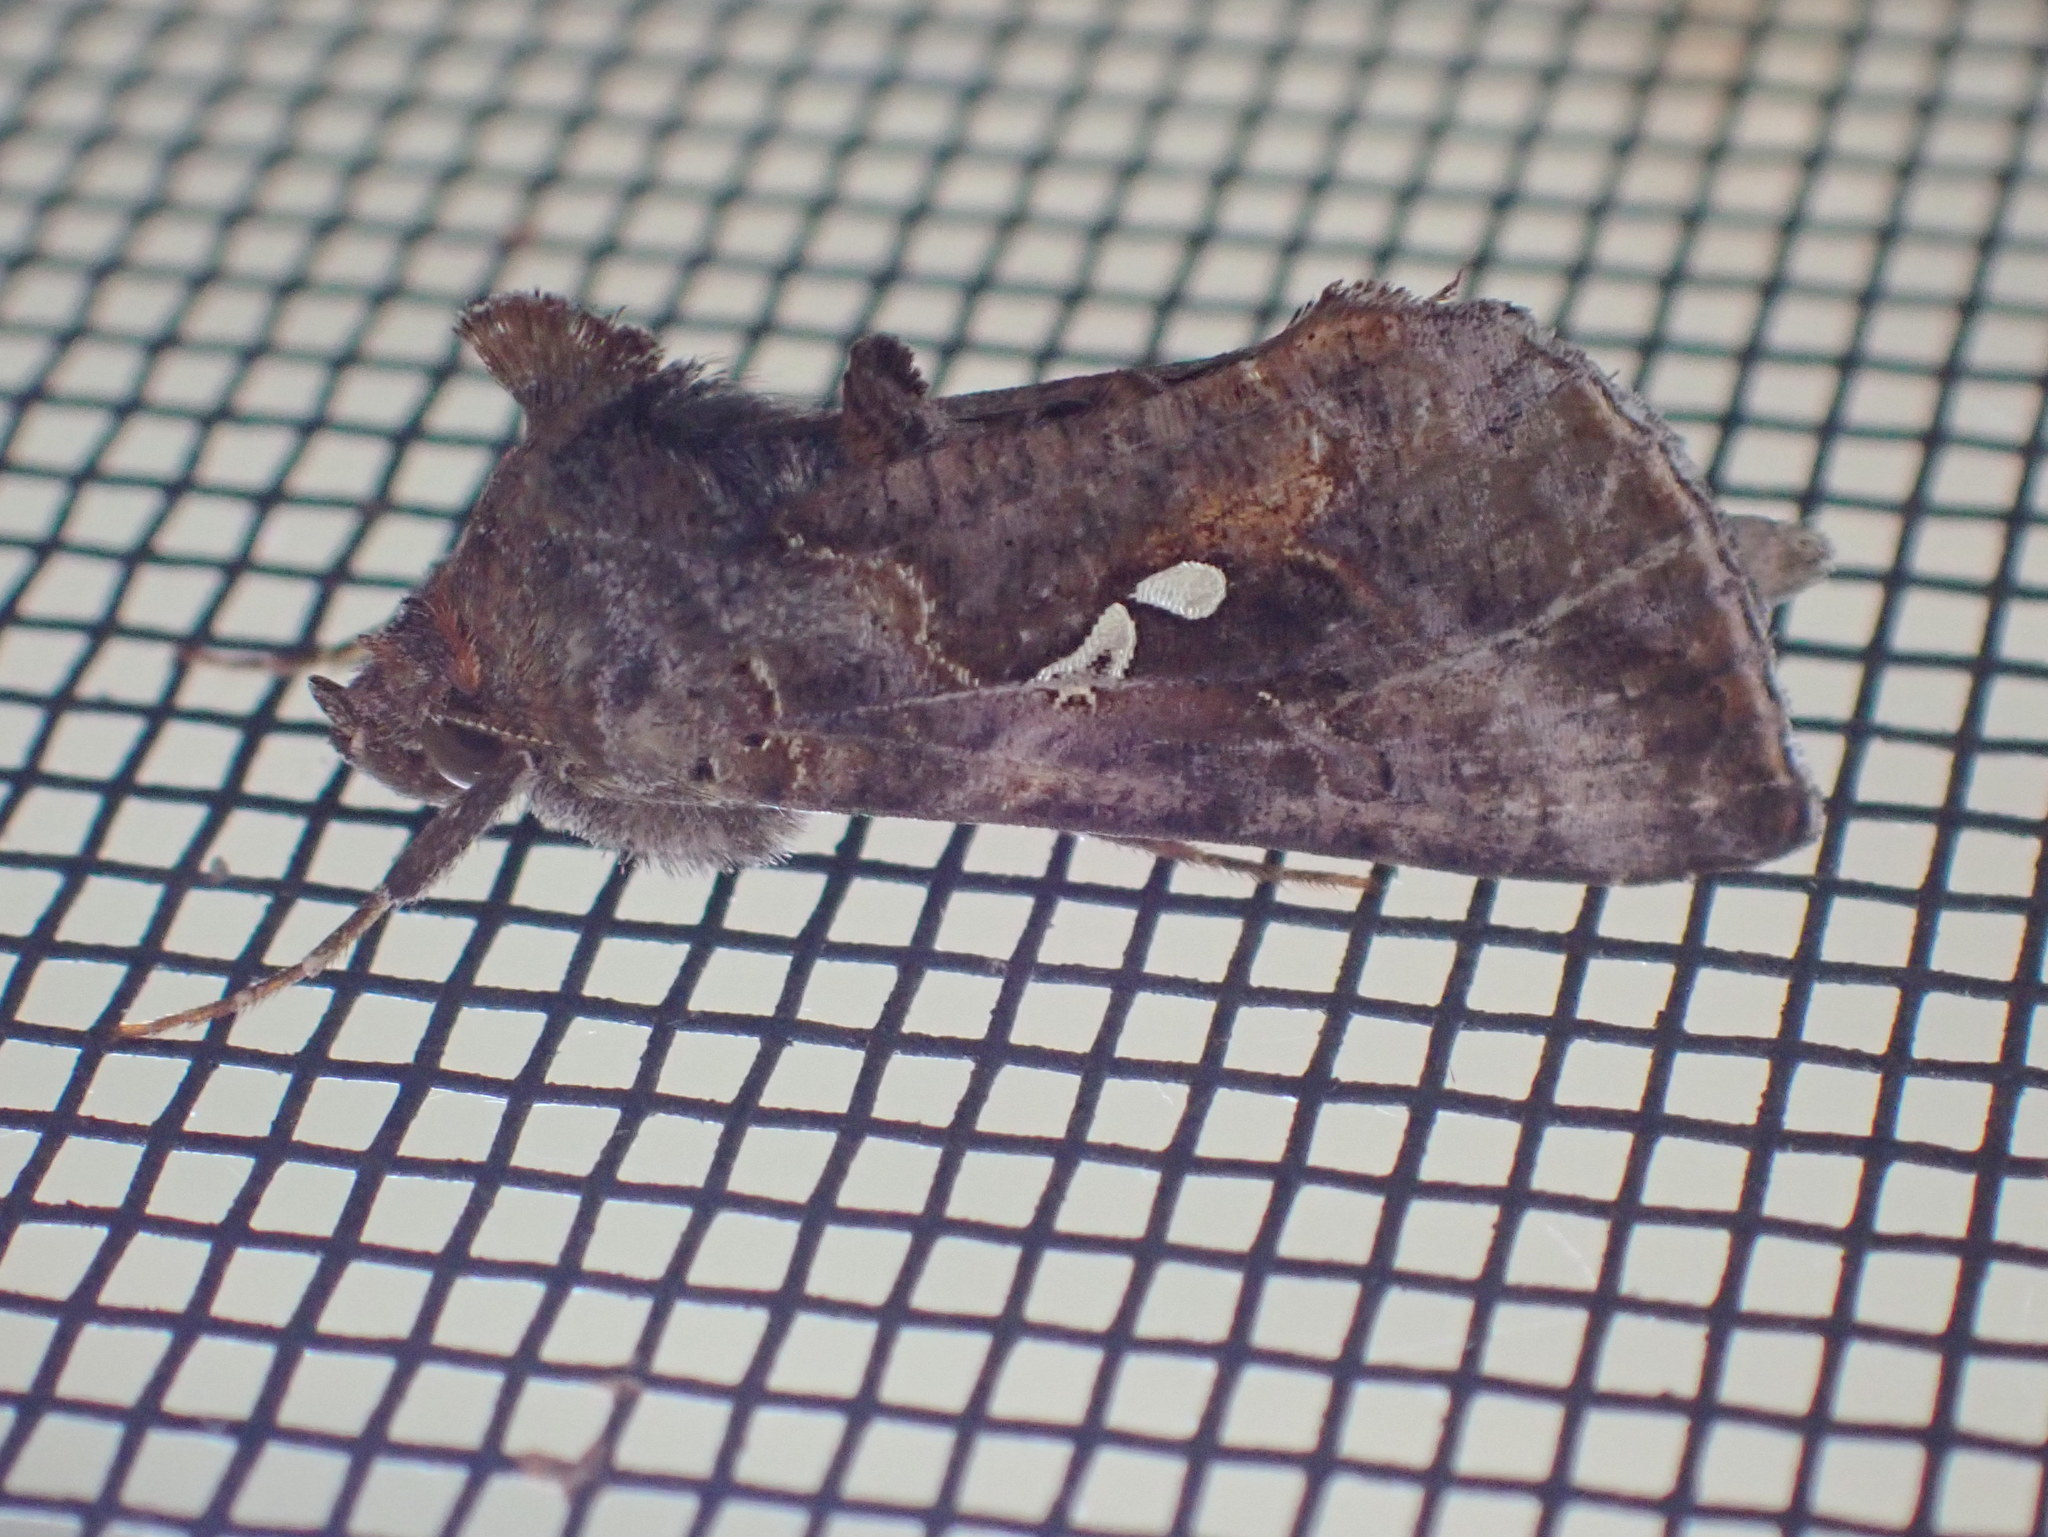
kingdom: Animalia
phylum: Arthropoda
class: Insecta
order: Lepidoptera
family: Noctuidae
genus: Autographa
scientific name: Autographa precationis
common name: Common looper moth
